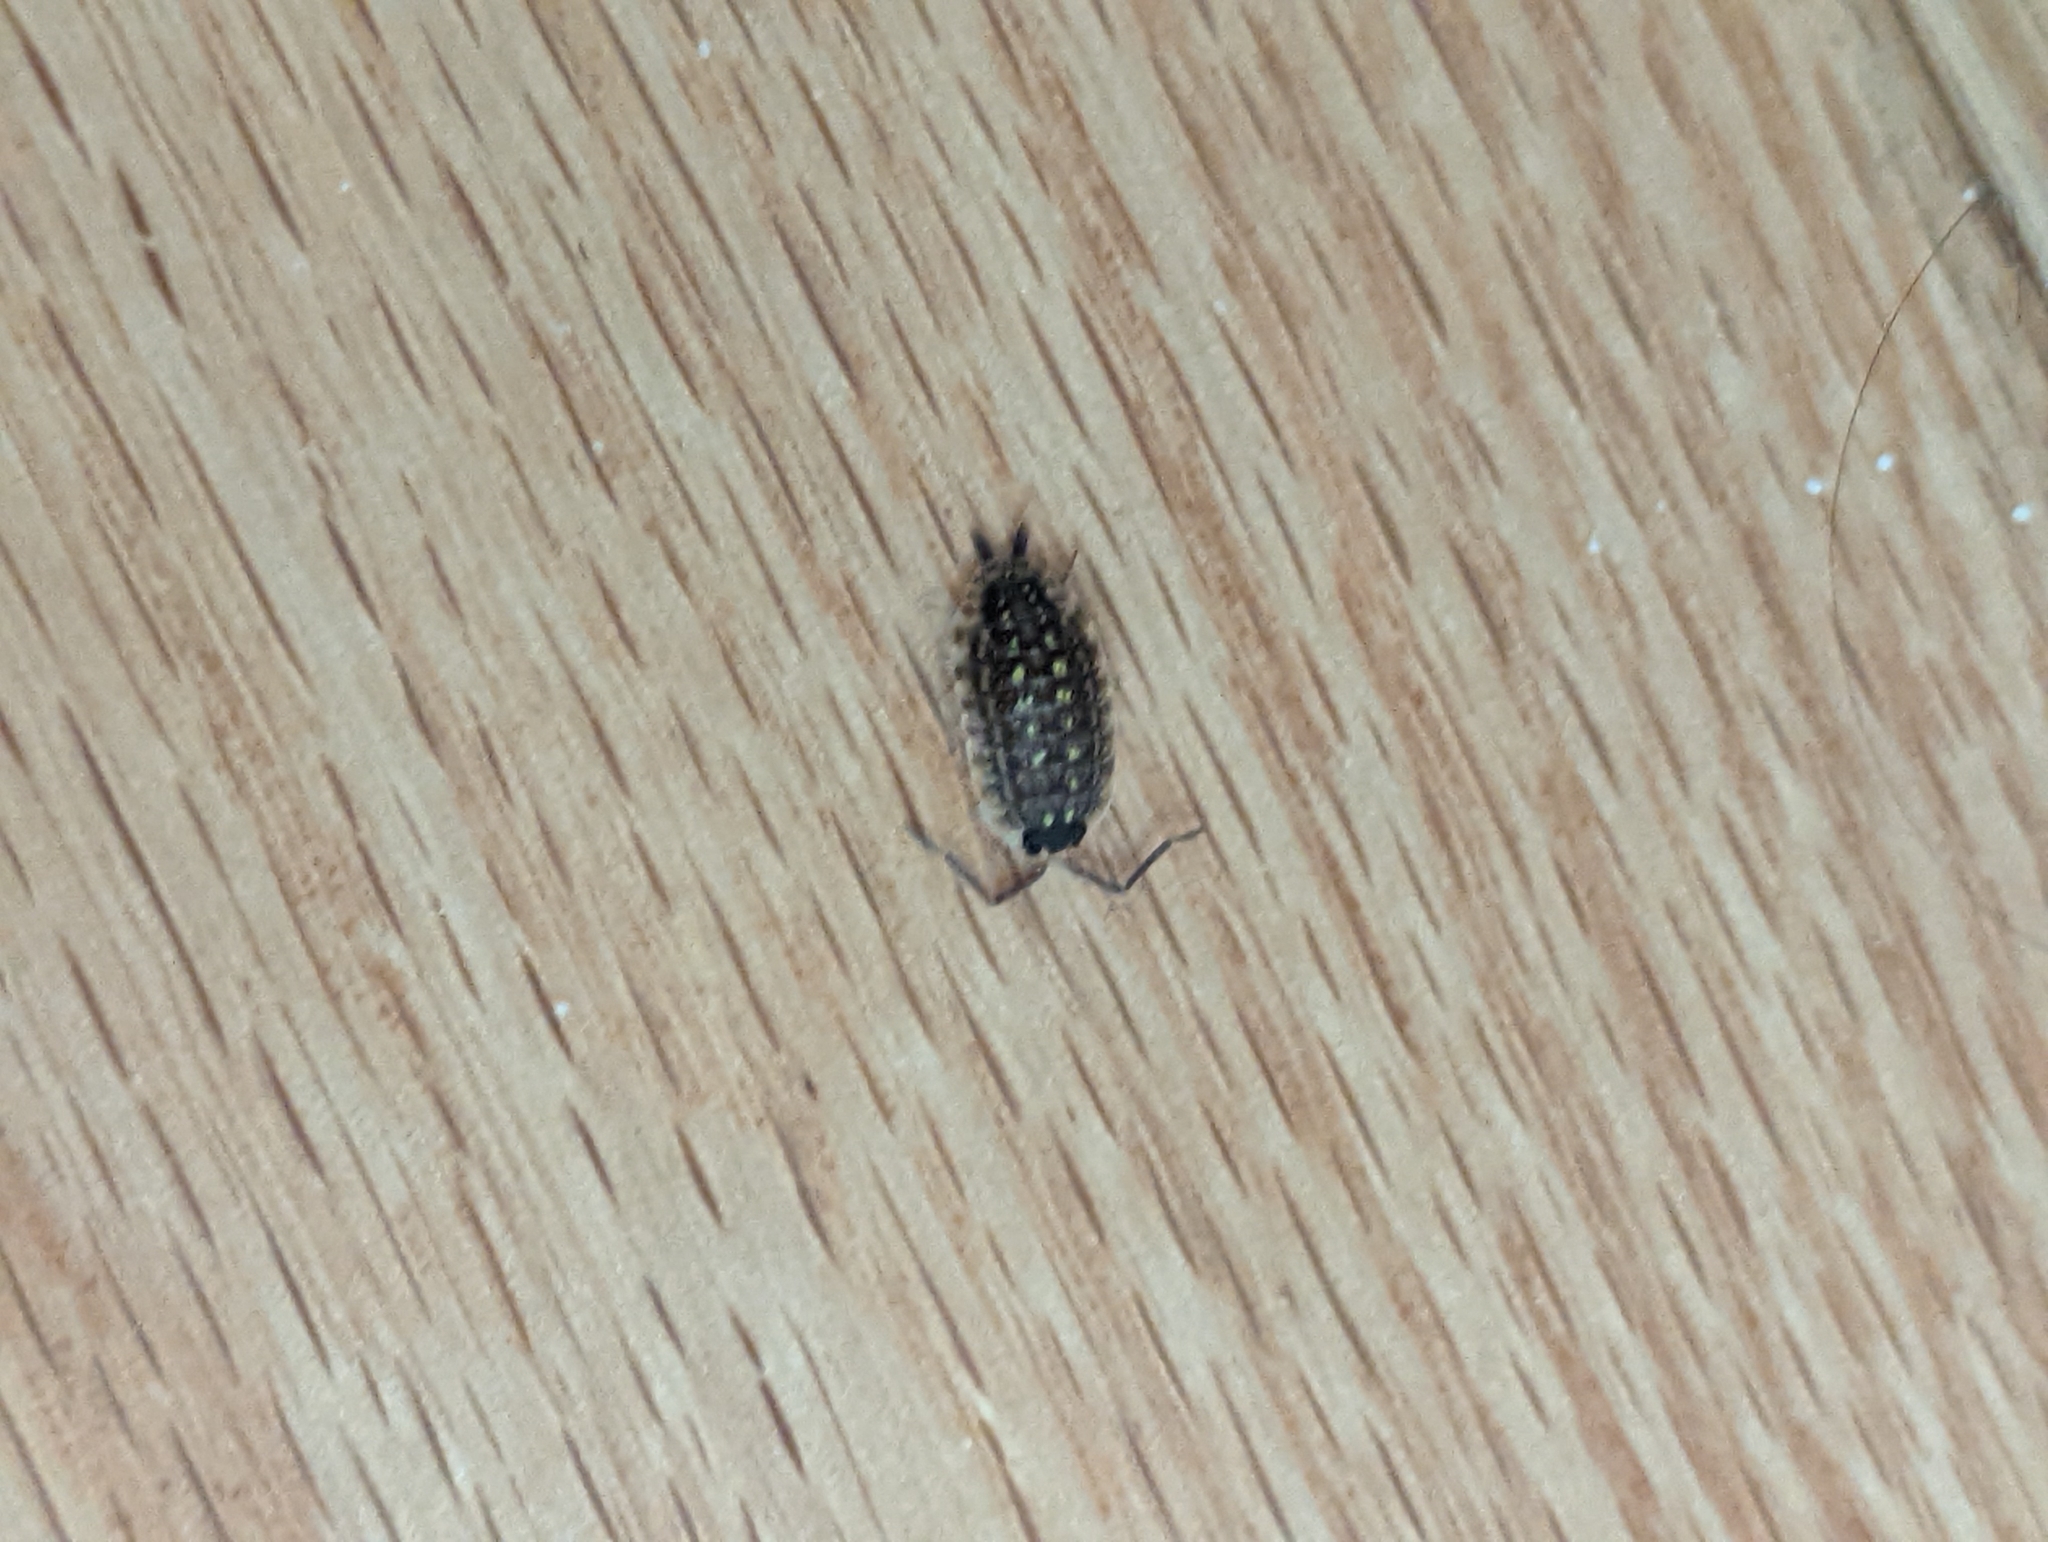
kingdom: Animalia
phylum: Arthropoda
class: Malacostraca
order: Isopoda
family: Porcellionidae
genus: Porcellio
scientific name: Porcellio spinicornis
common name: Painted woodlouse
